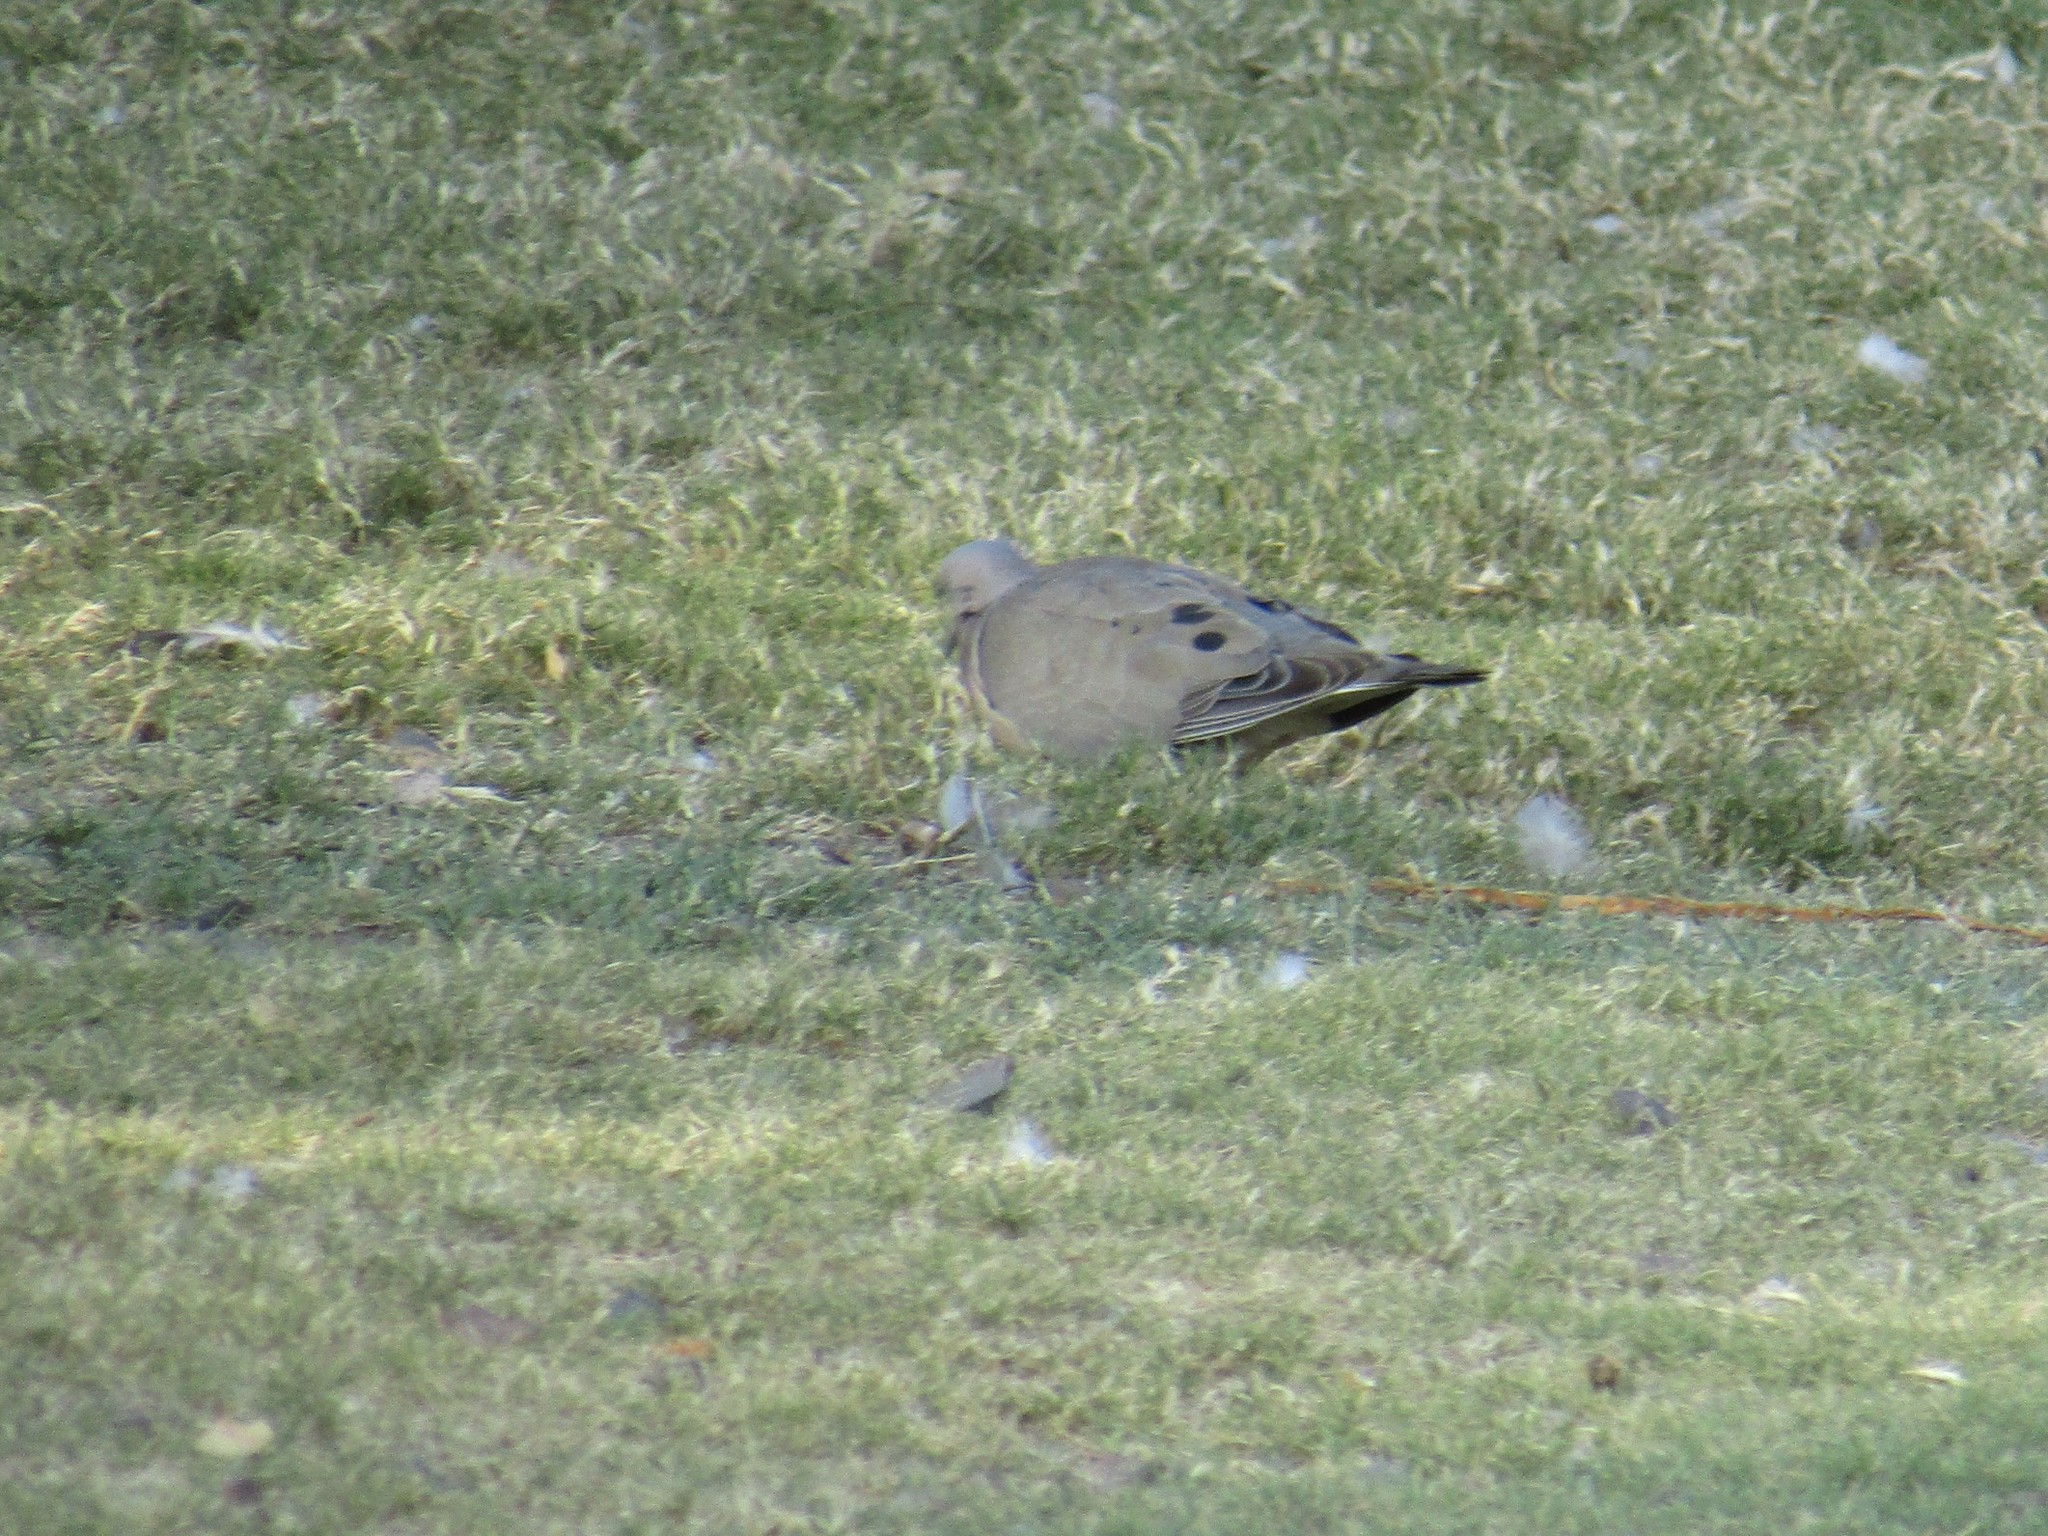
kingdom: Animalia
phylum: Chordata
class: Aves
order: Columbiformes
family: Columbidae
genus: Zenaida
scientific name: Zenaida auriculata
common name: Eared dove
